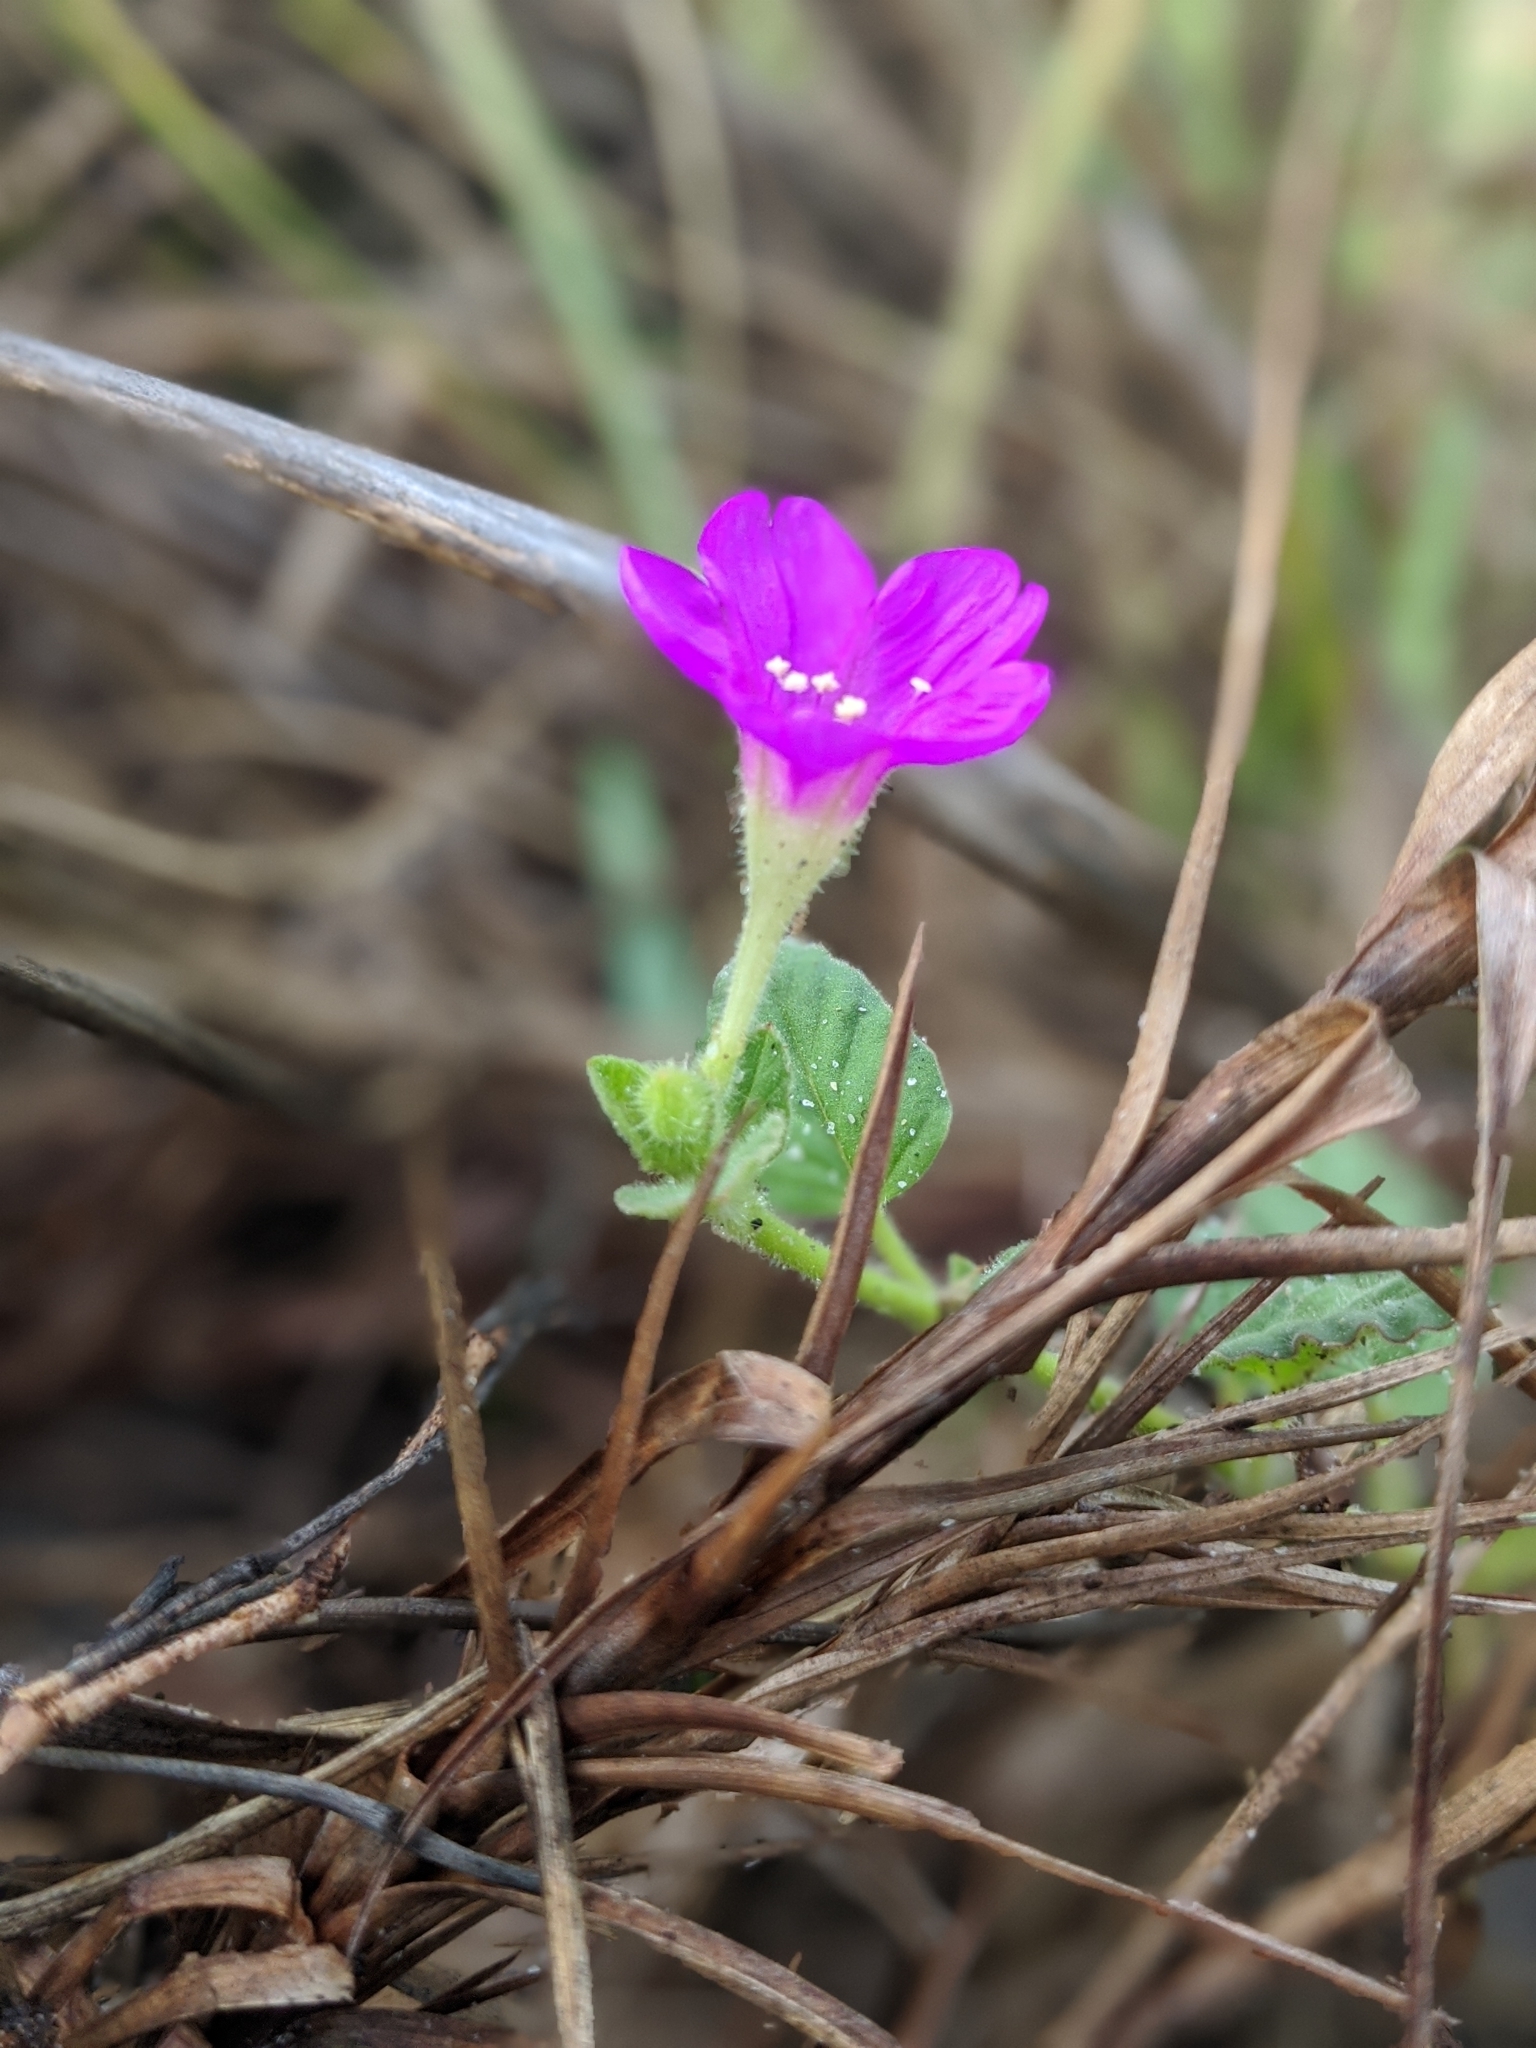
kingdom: Plantae
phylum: Tracheophyta
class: Magnoliopsida
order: Caryophyllales
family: Nyctaginaceae
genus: Okenia
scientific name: Okenia hypogaea
